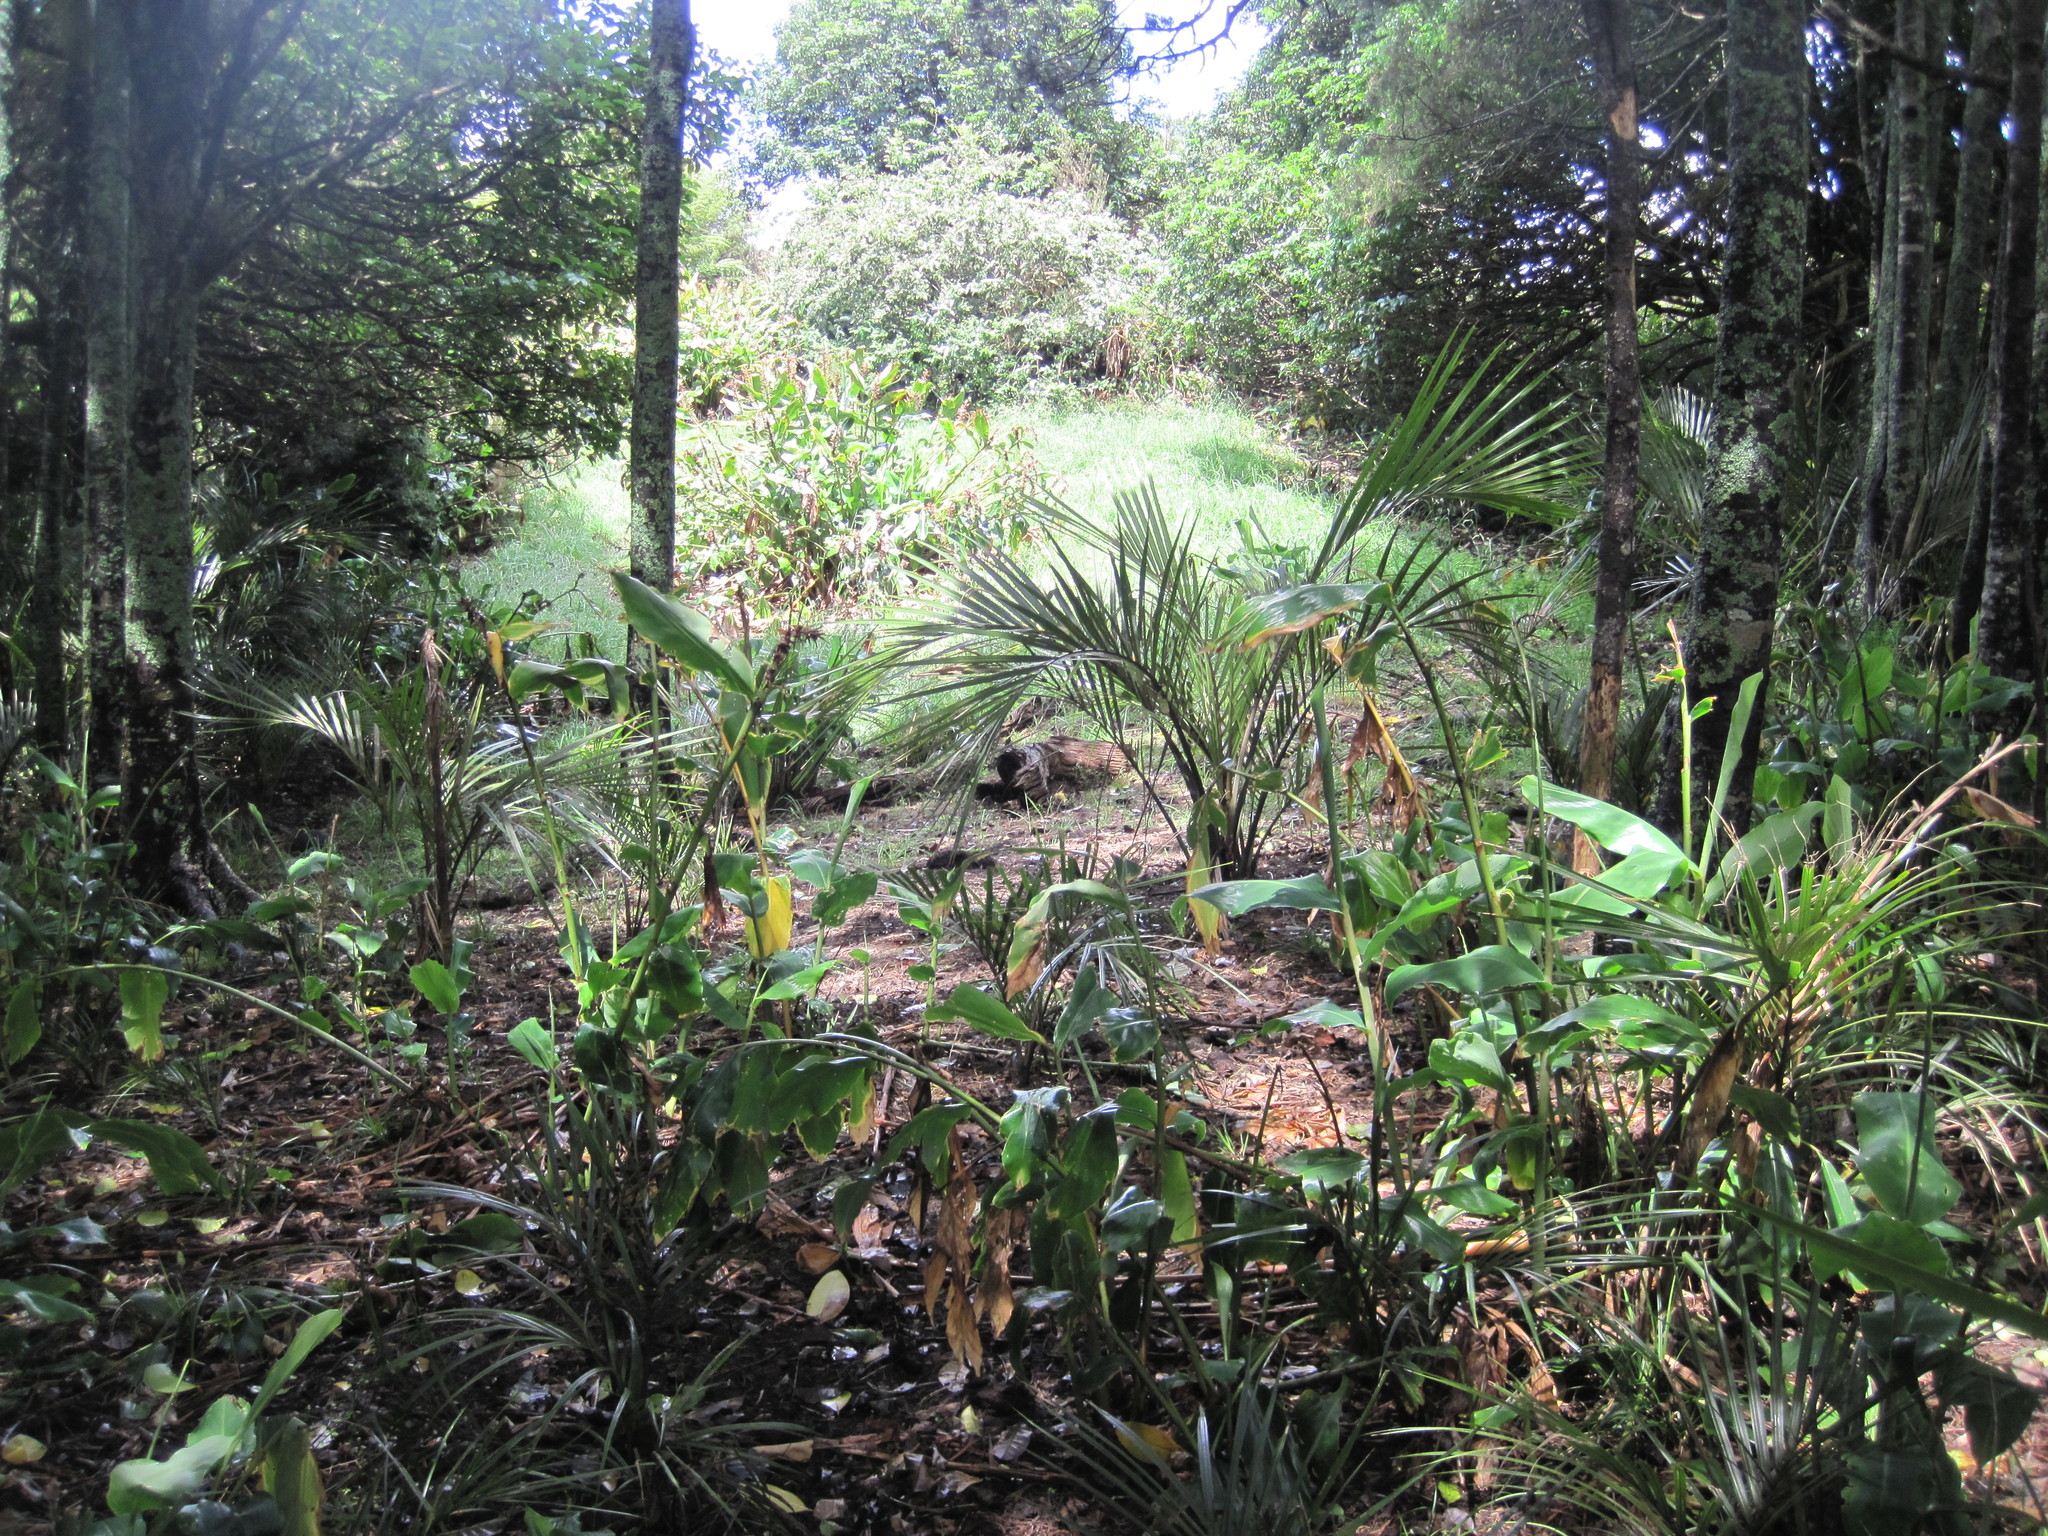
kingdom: Plantae
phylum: Tracheophyta
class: Liliopsida
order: Zingiberales
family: Zingiberaceae
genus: Hedychium
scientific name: Hedychium gardnerianum
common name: Himalayan ginger
